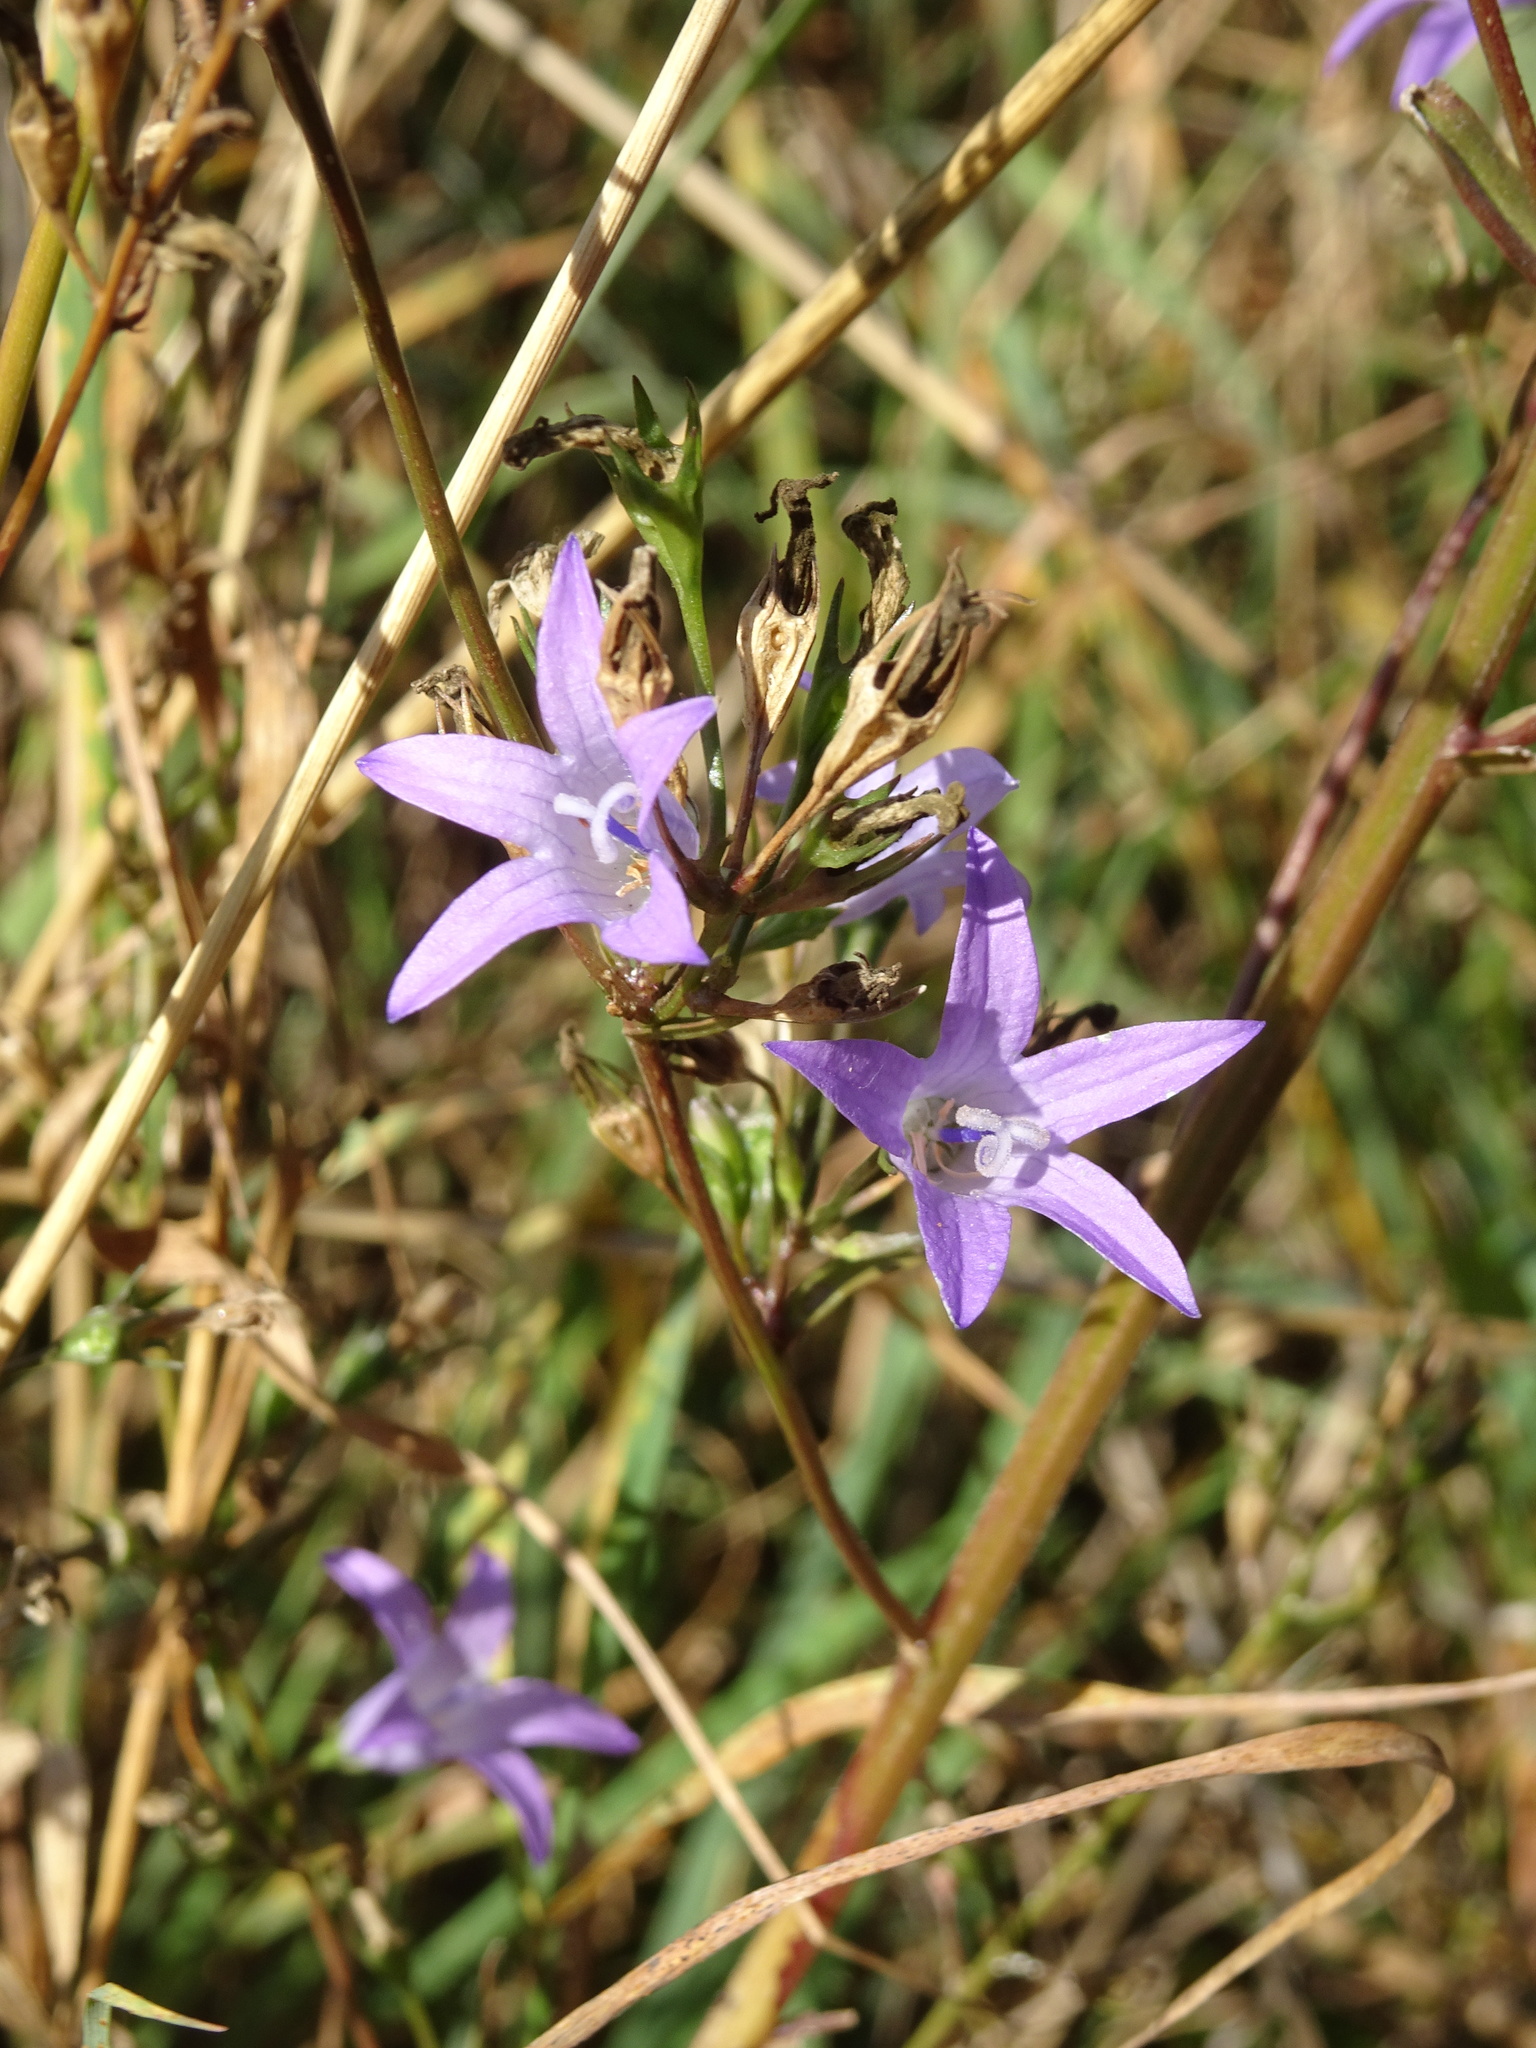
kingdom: Plantae
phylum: Tracheophyta
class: Magnoliopsida
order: Asterales
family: Campanulaceae
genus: Campanula
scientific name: Campanula rapunculus
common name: Rampion bellflower
